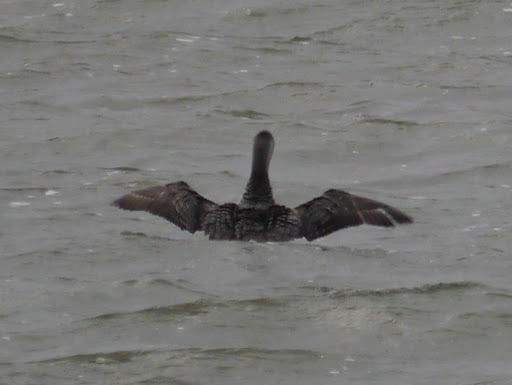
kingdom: Animalia
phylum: Chordata
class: Aves
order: Gaviiformes
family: Gaviidae
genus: Gavia
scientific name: Gavia stellata
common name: Red-throated loon
